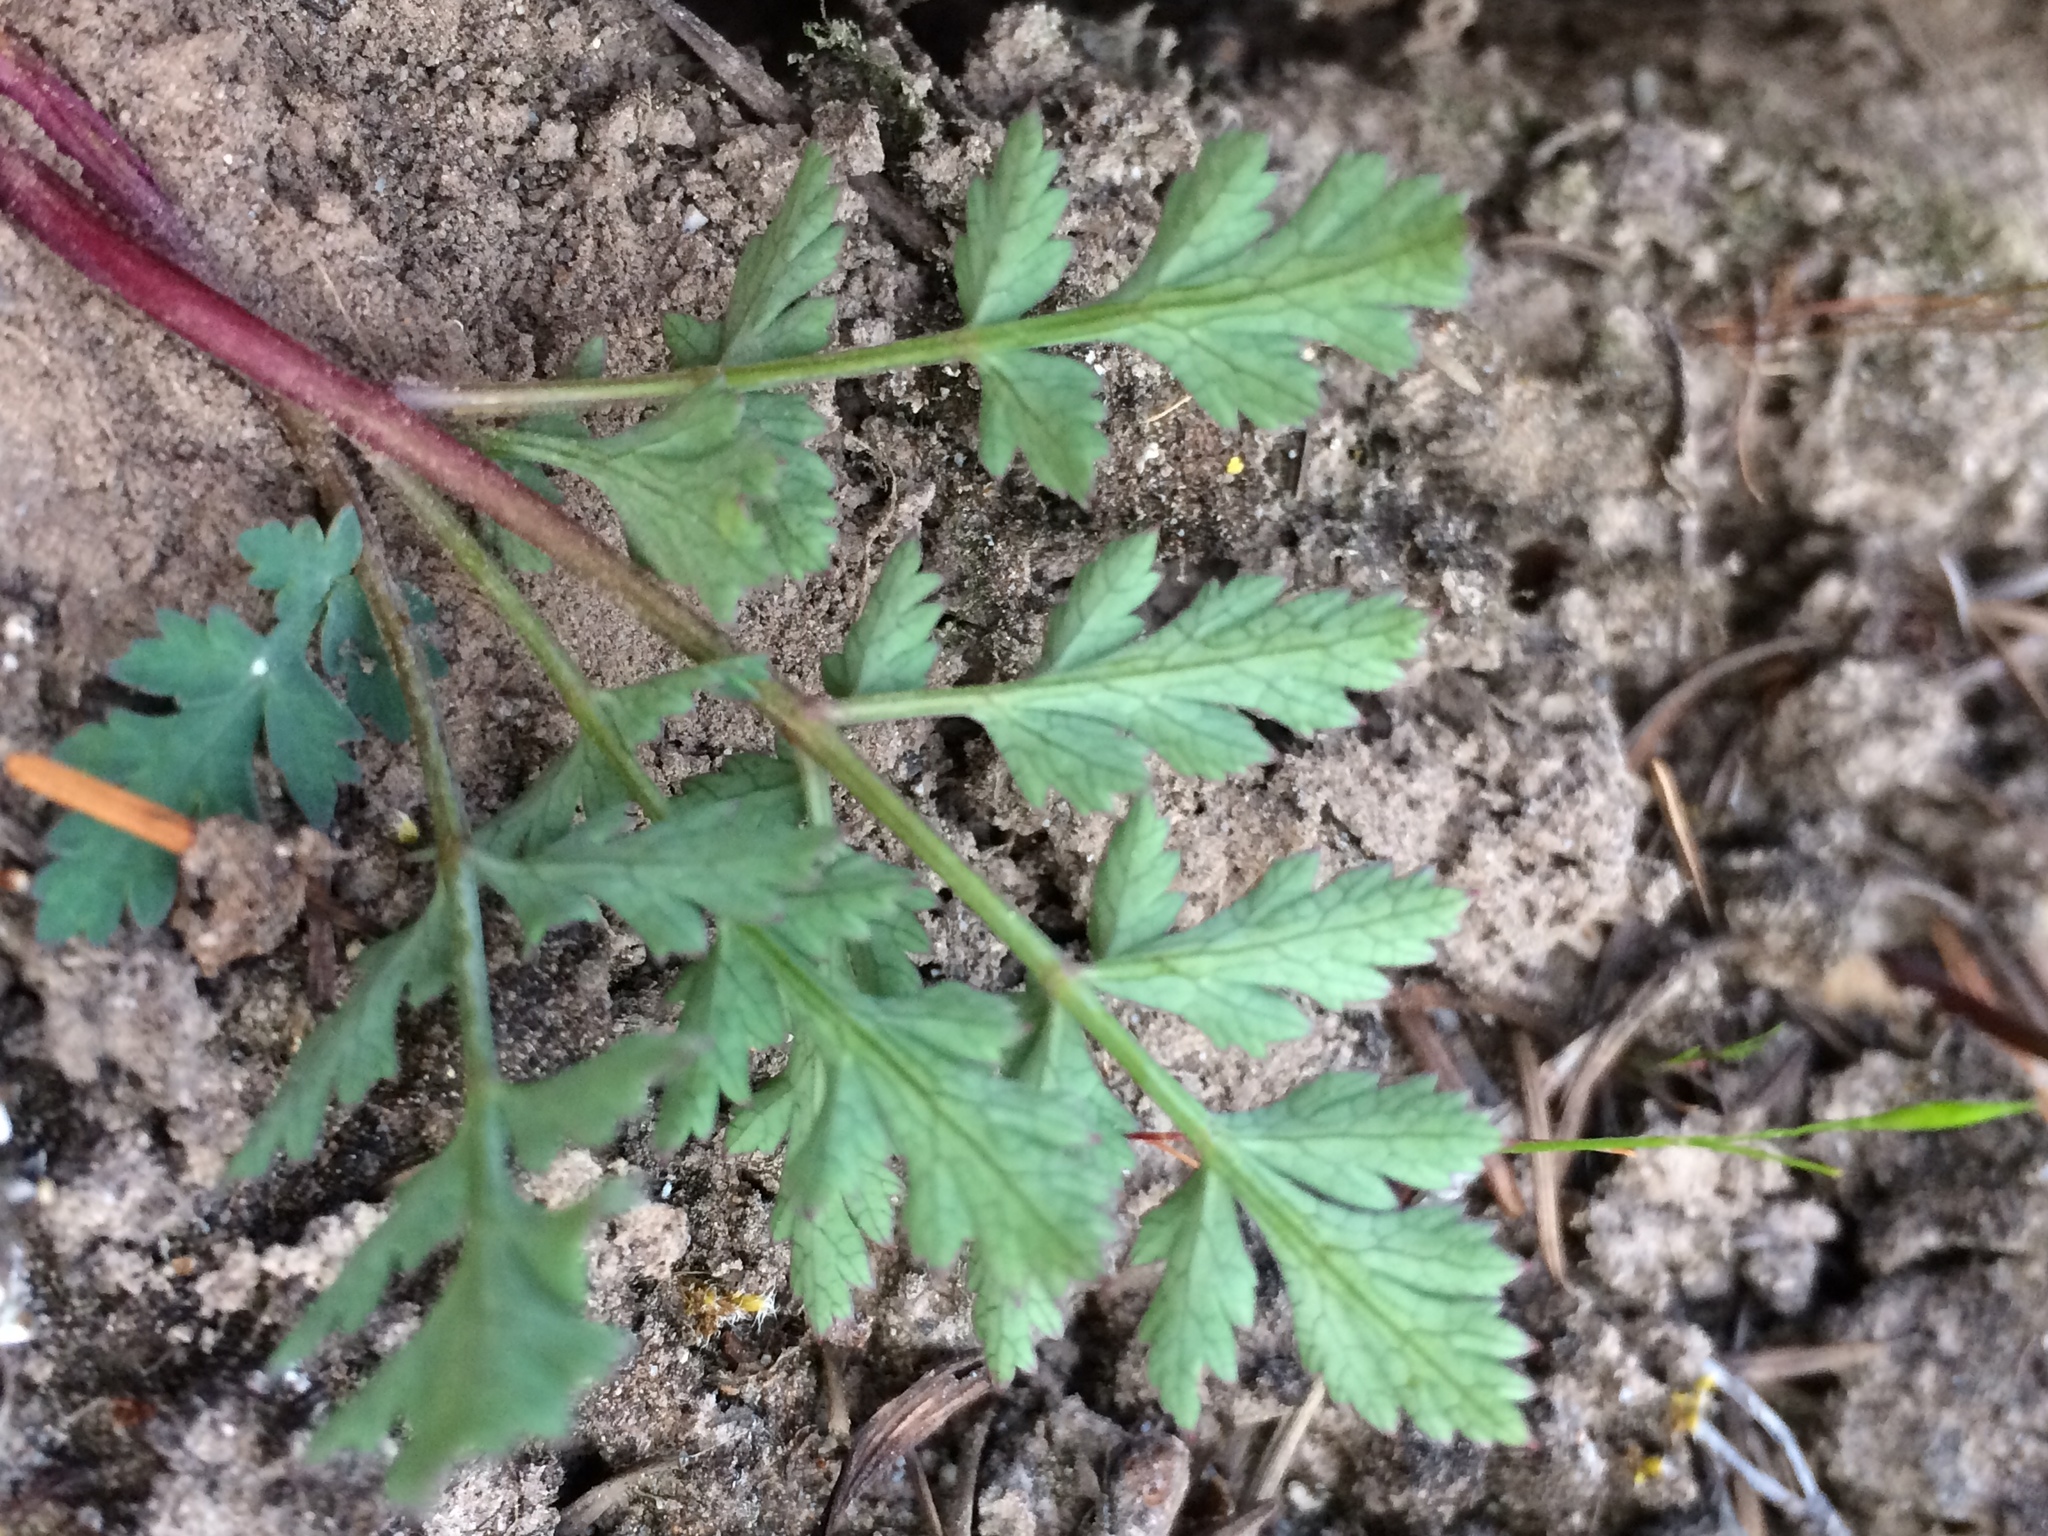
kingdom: Plantae
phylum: Tracheophyta
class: Magnoliopsida
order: Apiales
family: Apiaceae
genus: Lomatium
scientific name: Lomatium martindalei
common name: Cascade desert-parsley
